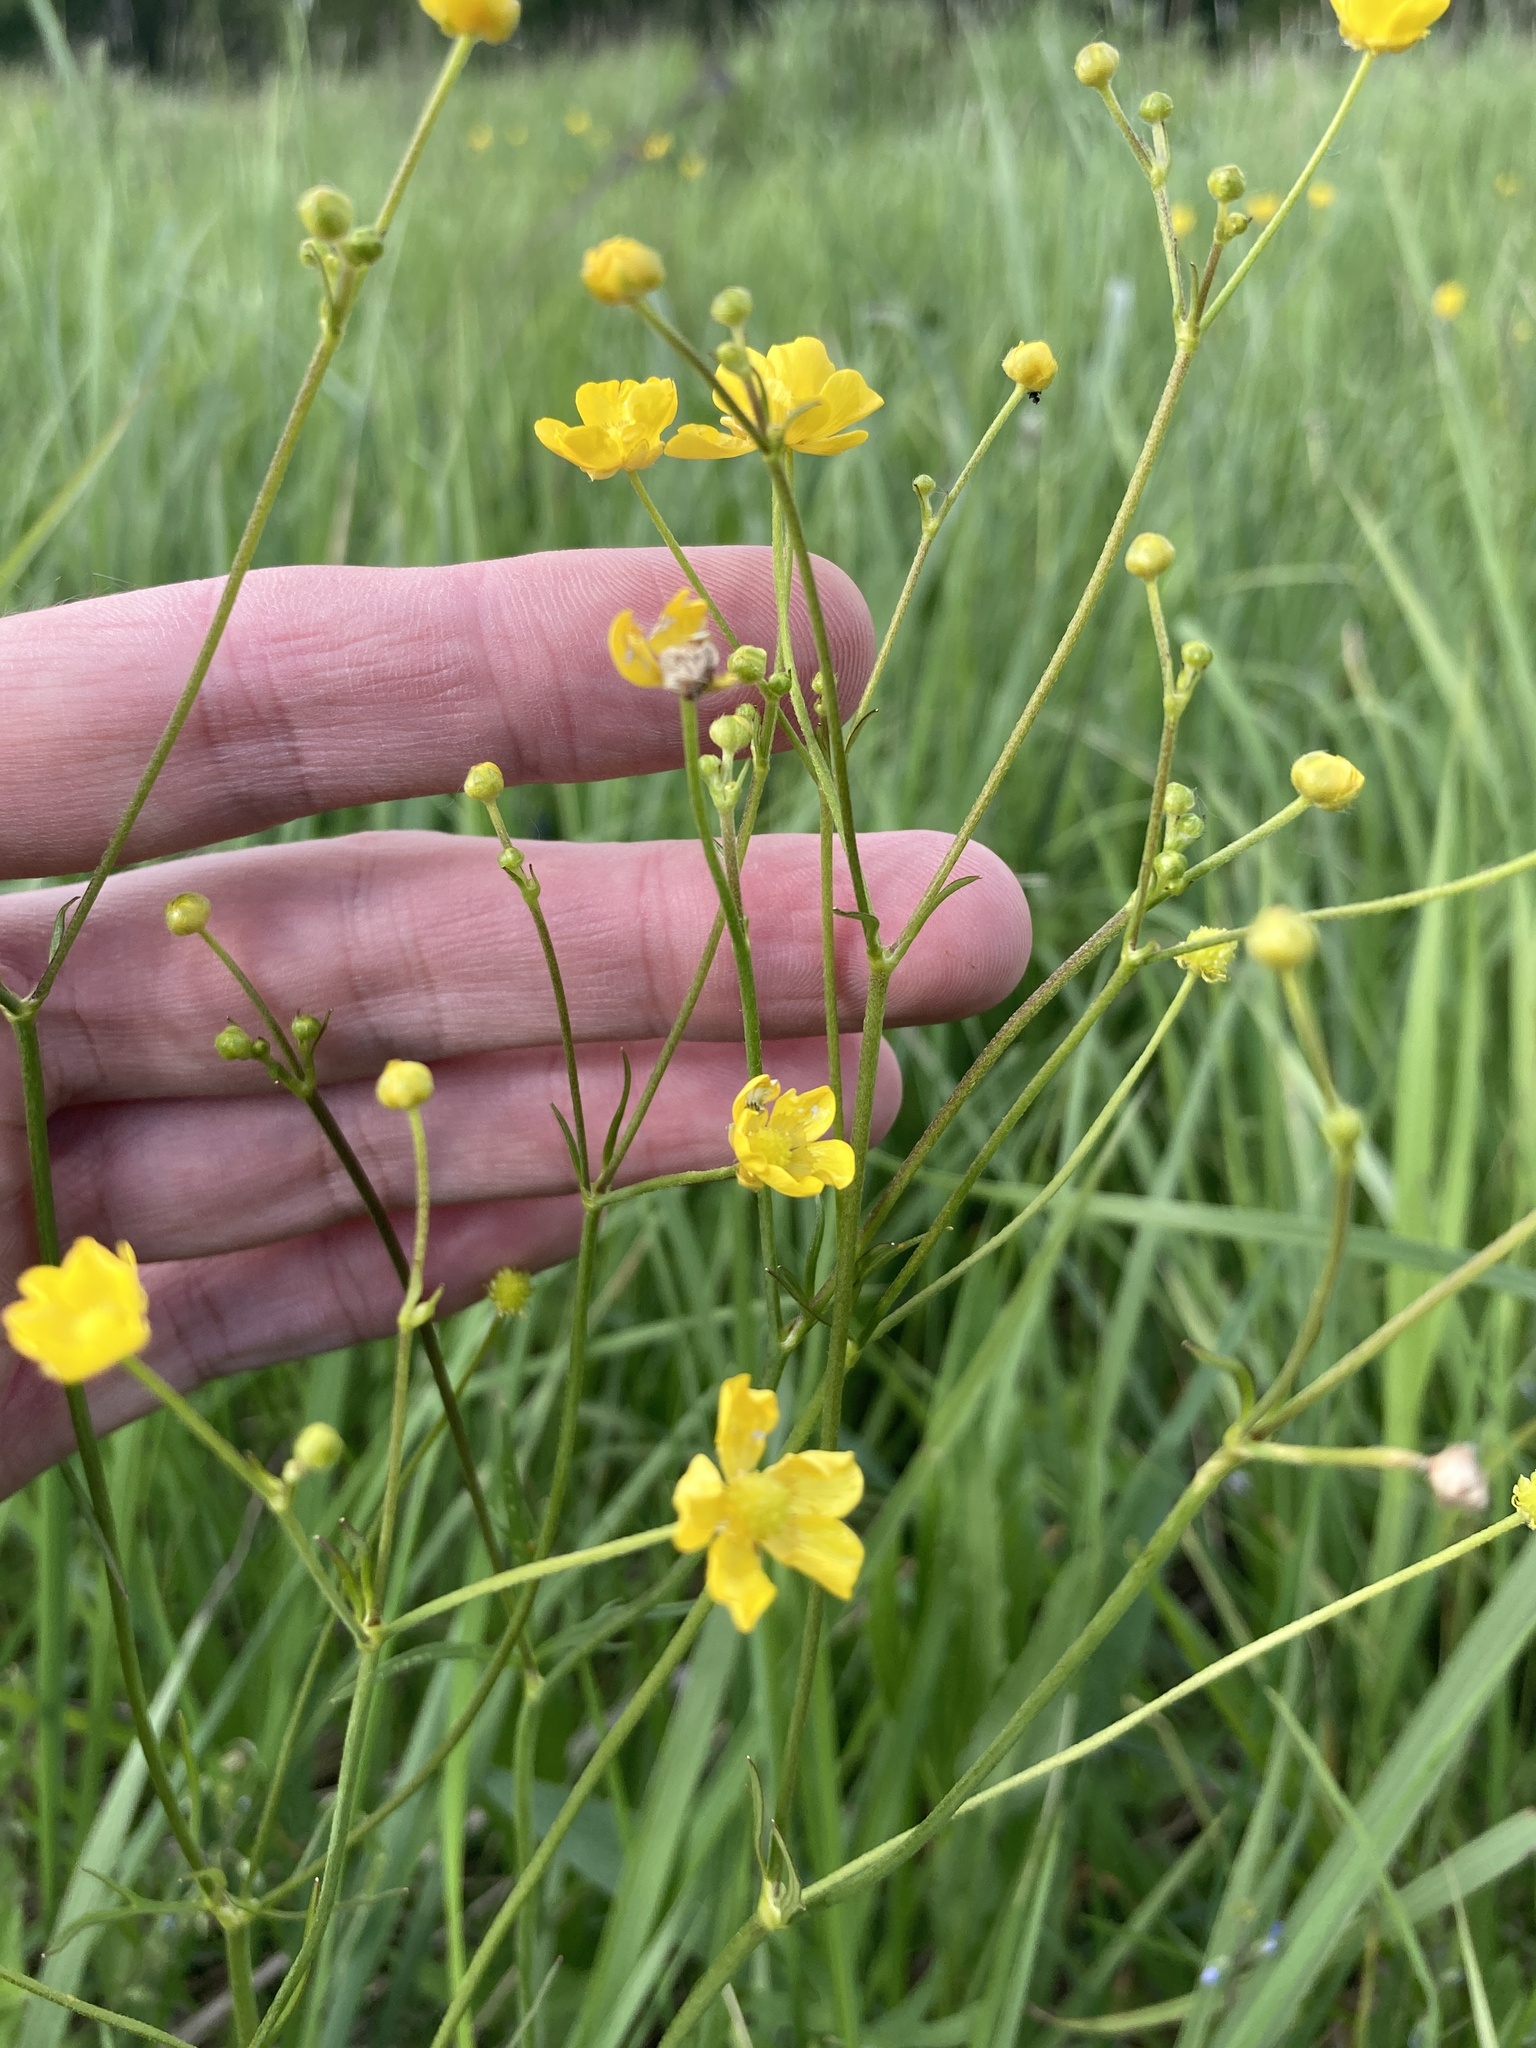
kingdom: Plantae
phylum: Tracheophyta
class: Magnoliopsida
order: Ranunculales
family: Ranunculaceae
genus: Ranunculus
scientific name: Ranunculus acris
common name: Meadow buttercup
